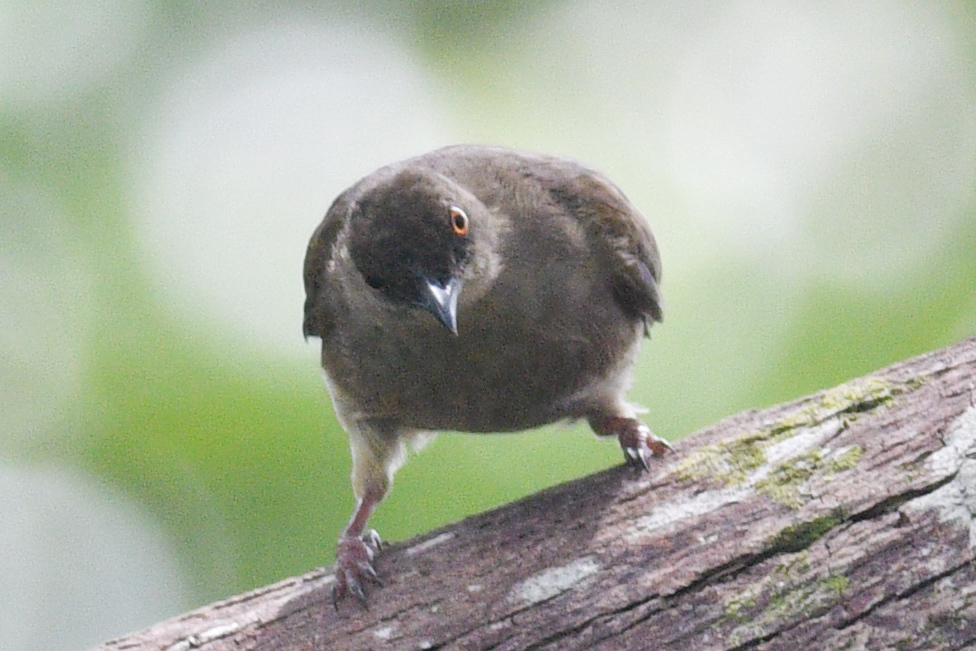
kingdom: Animalia
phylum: Chordata
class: Aves
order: Passeriformes
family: Pycnonotidae
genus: Pycnonotus
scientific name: Pycnonotus brunneus
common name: Asian red-eyed bulbul
